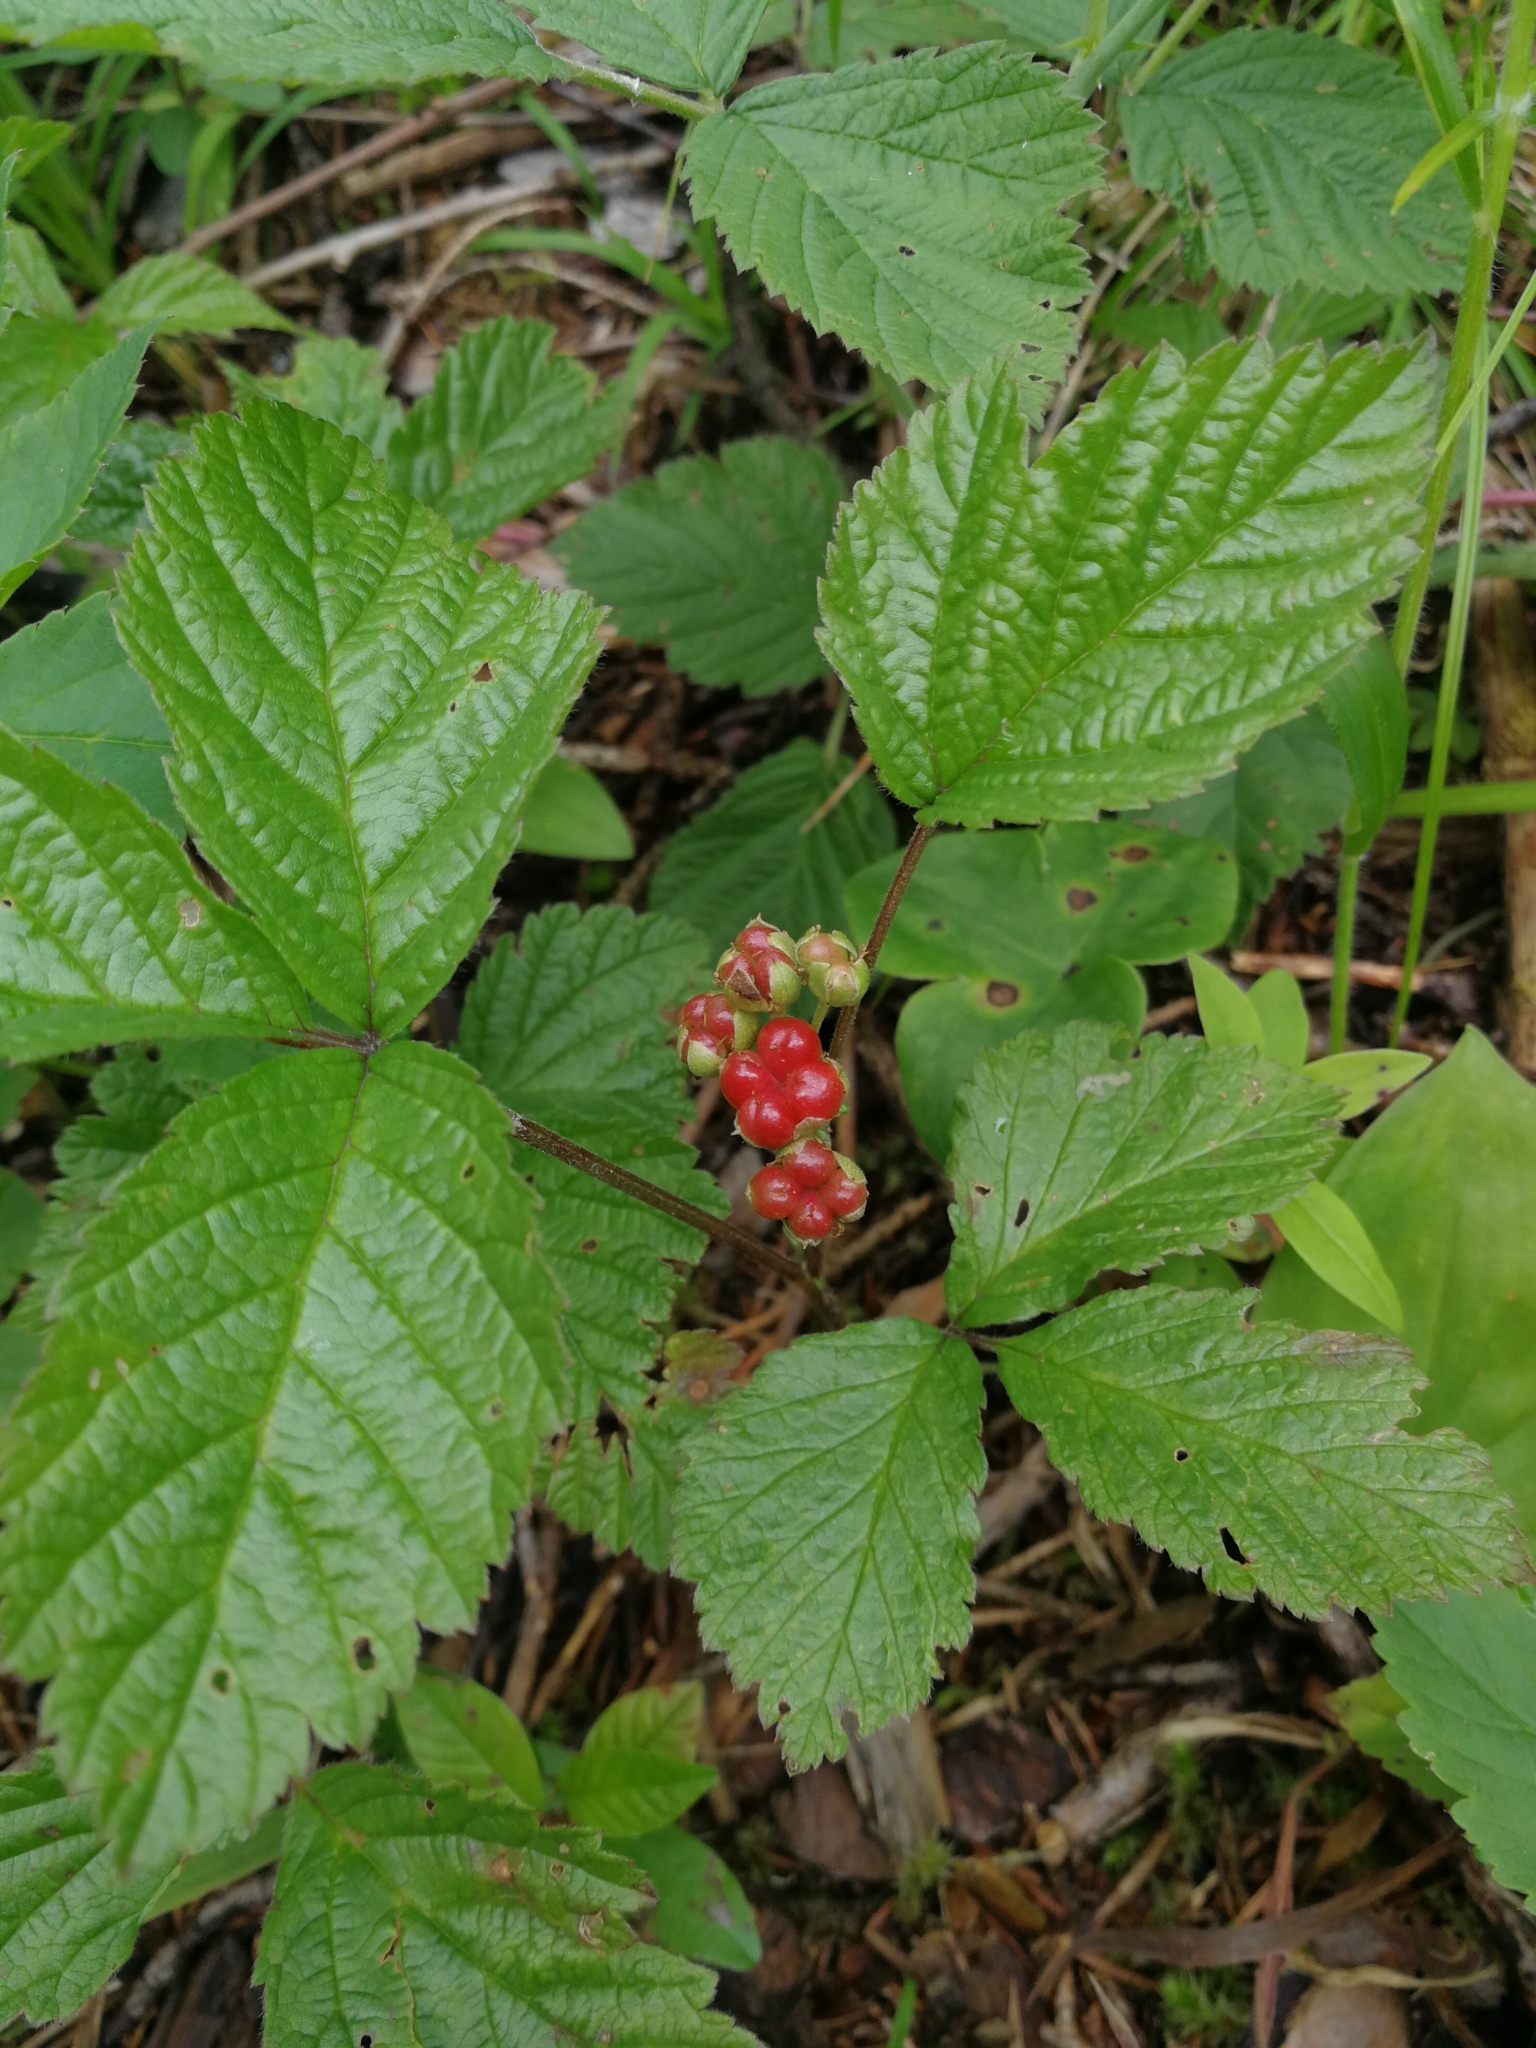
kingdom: Plantae
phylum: Tracheophyta
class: Magnoliopsida
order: Rosales
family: Rosaceae
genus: Rubus
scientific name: Rubus saxatilis
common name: Stone bramble
